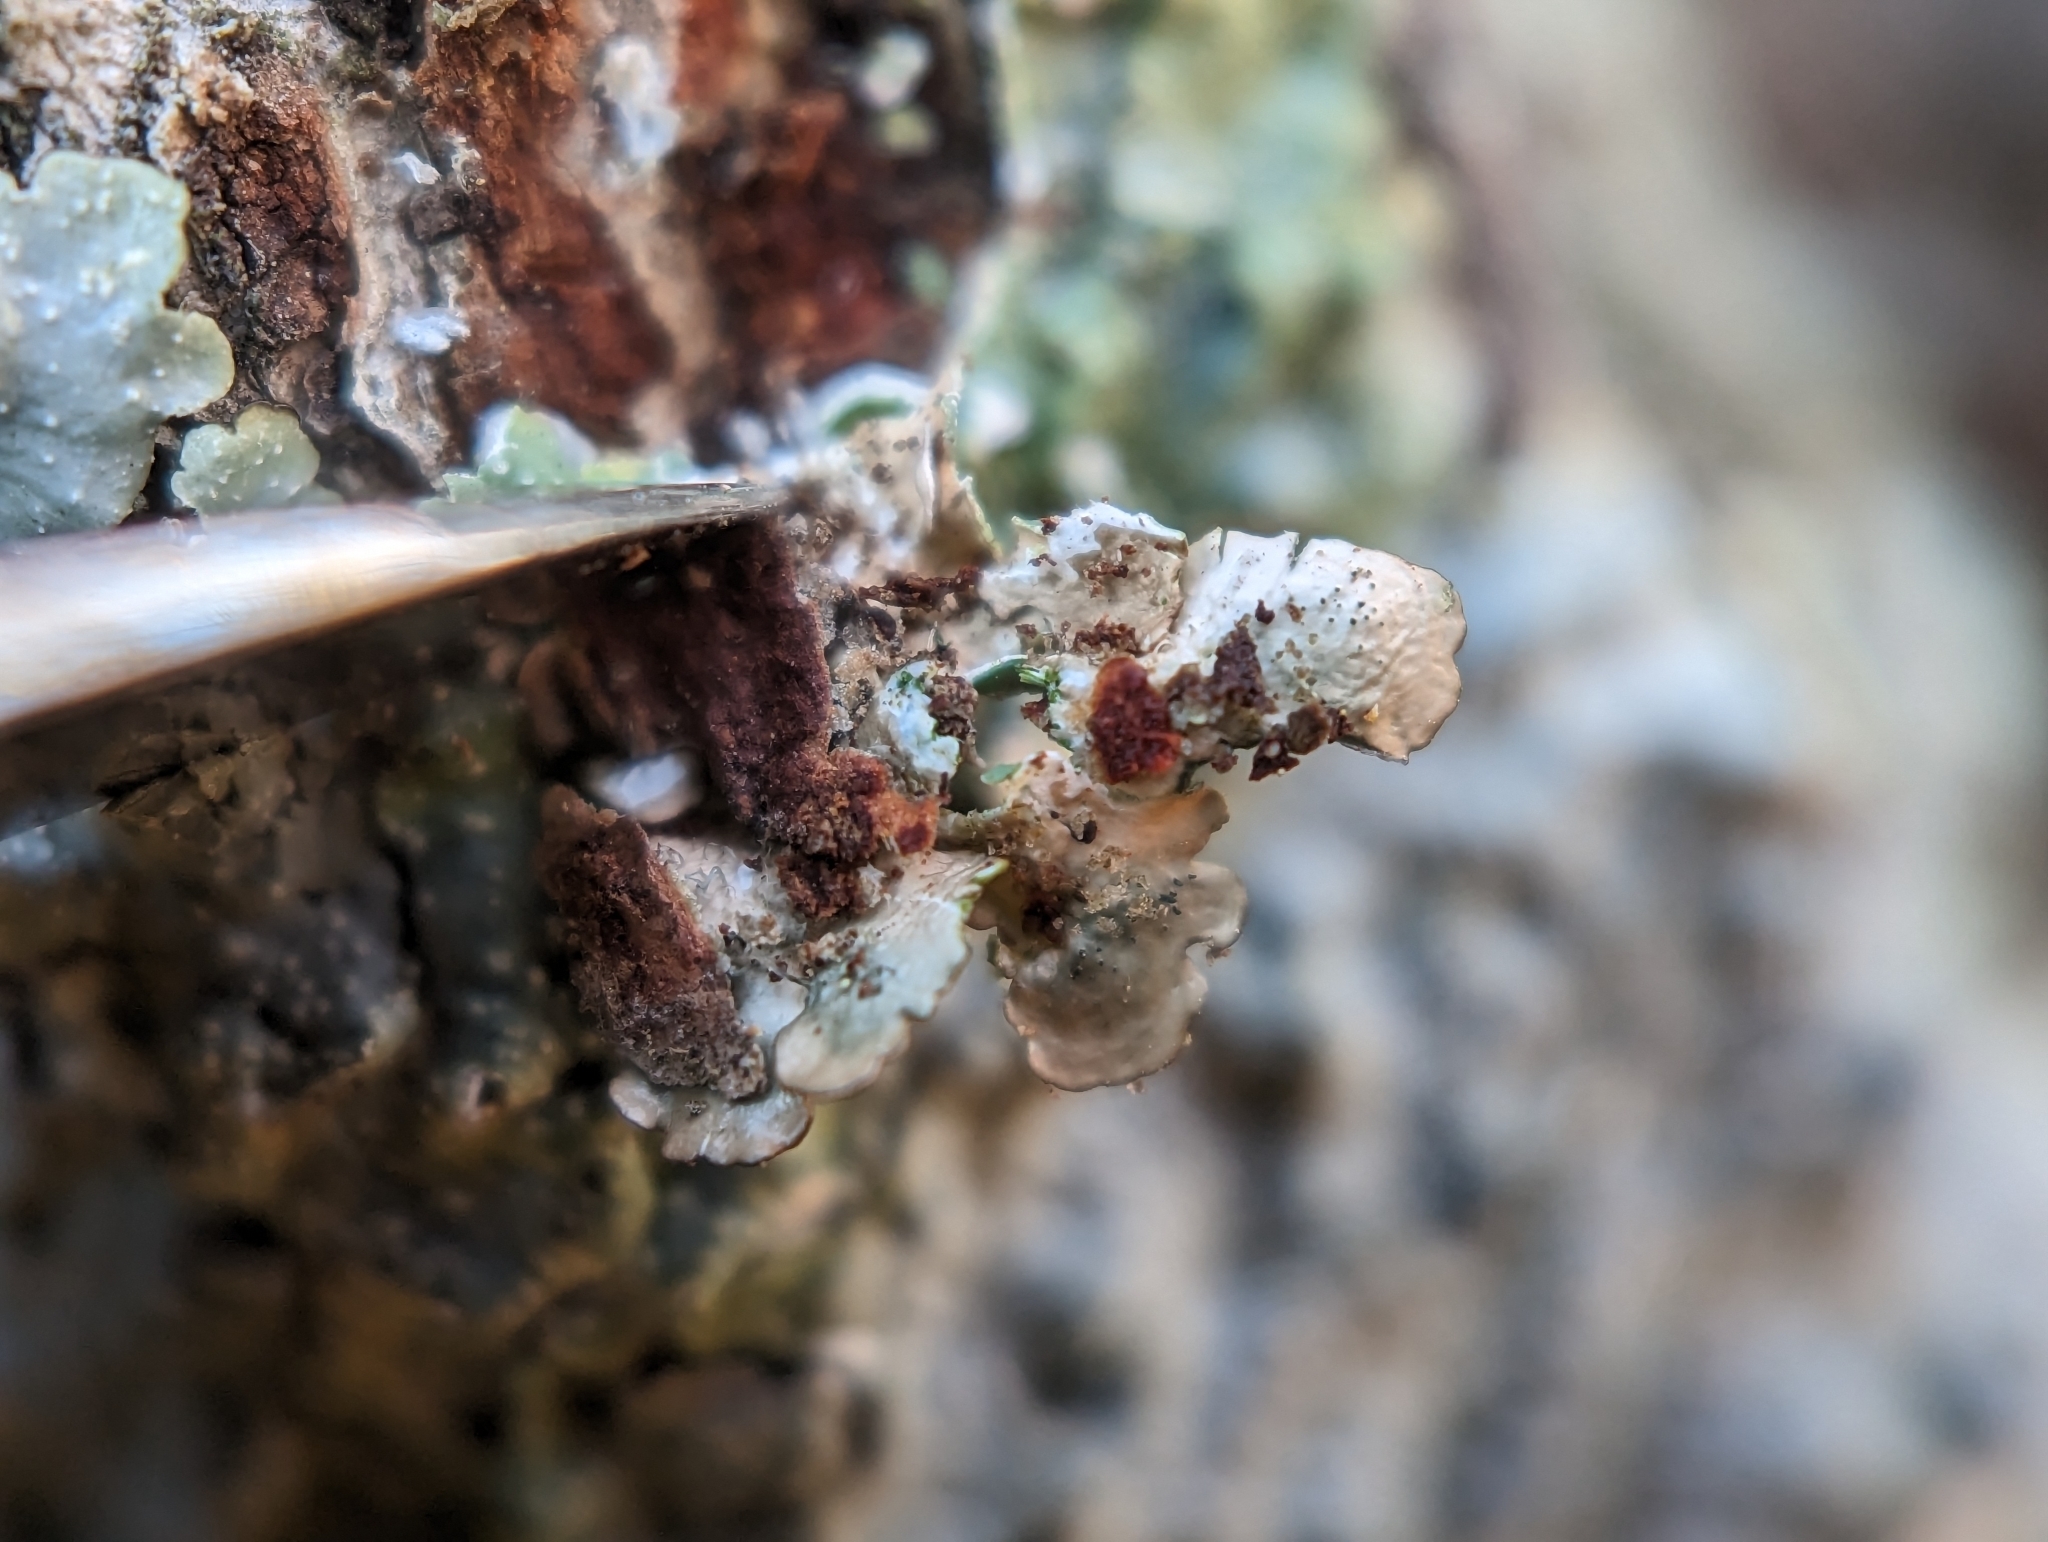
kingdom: Fungi
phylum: Ascomycota
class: Lecanoromycetes
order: Lecanorales
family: Parmeliaceae
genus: Punctelia
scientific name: Punctelia missouriensis
